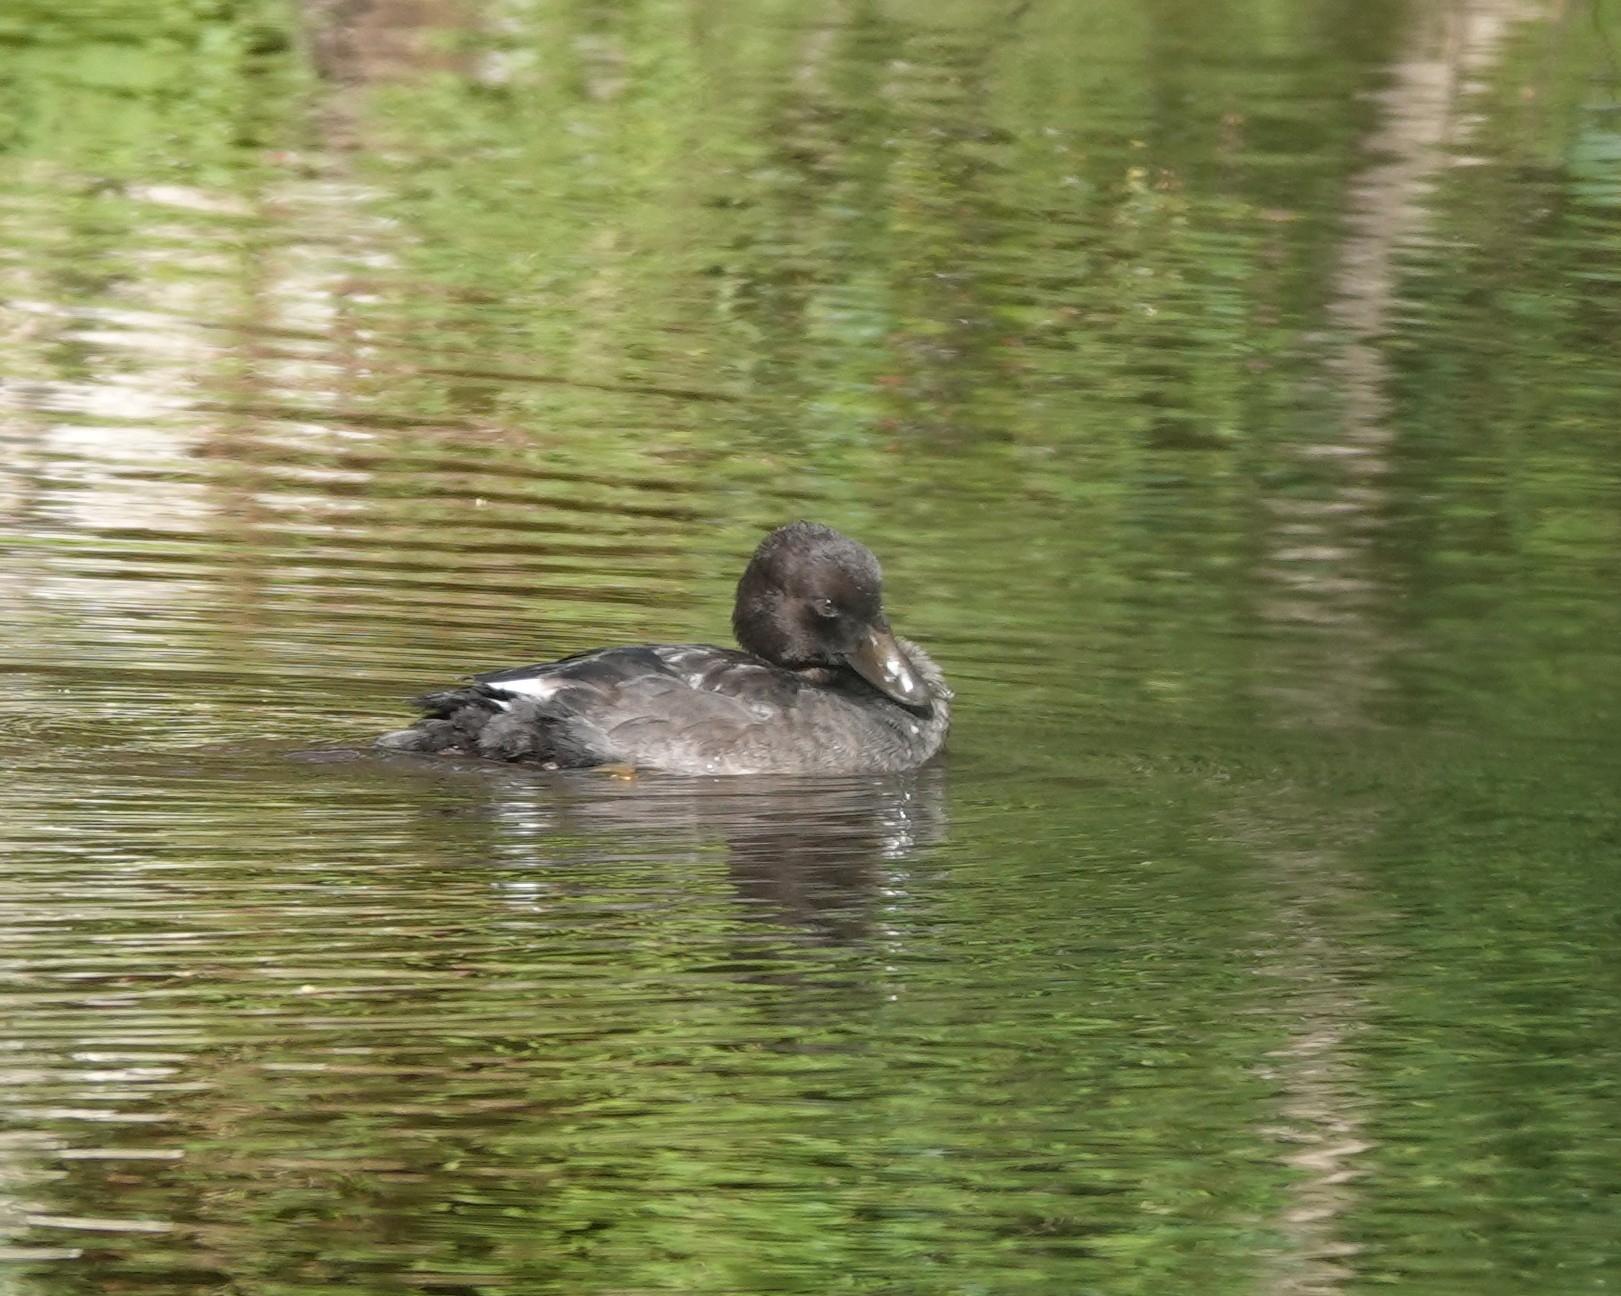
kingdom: Animalia
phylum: Chordata
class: Aves
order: Anseriformes
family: Anatidae
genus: Bucephala
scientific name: Bucephala clangula
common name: Common goldeneye
